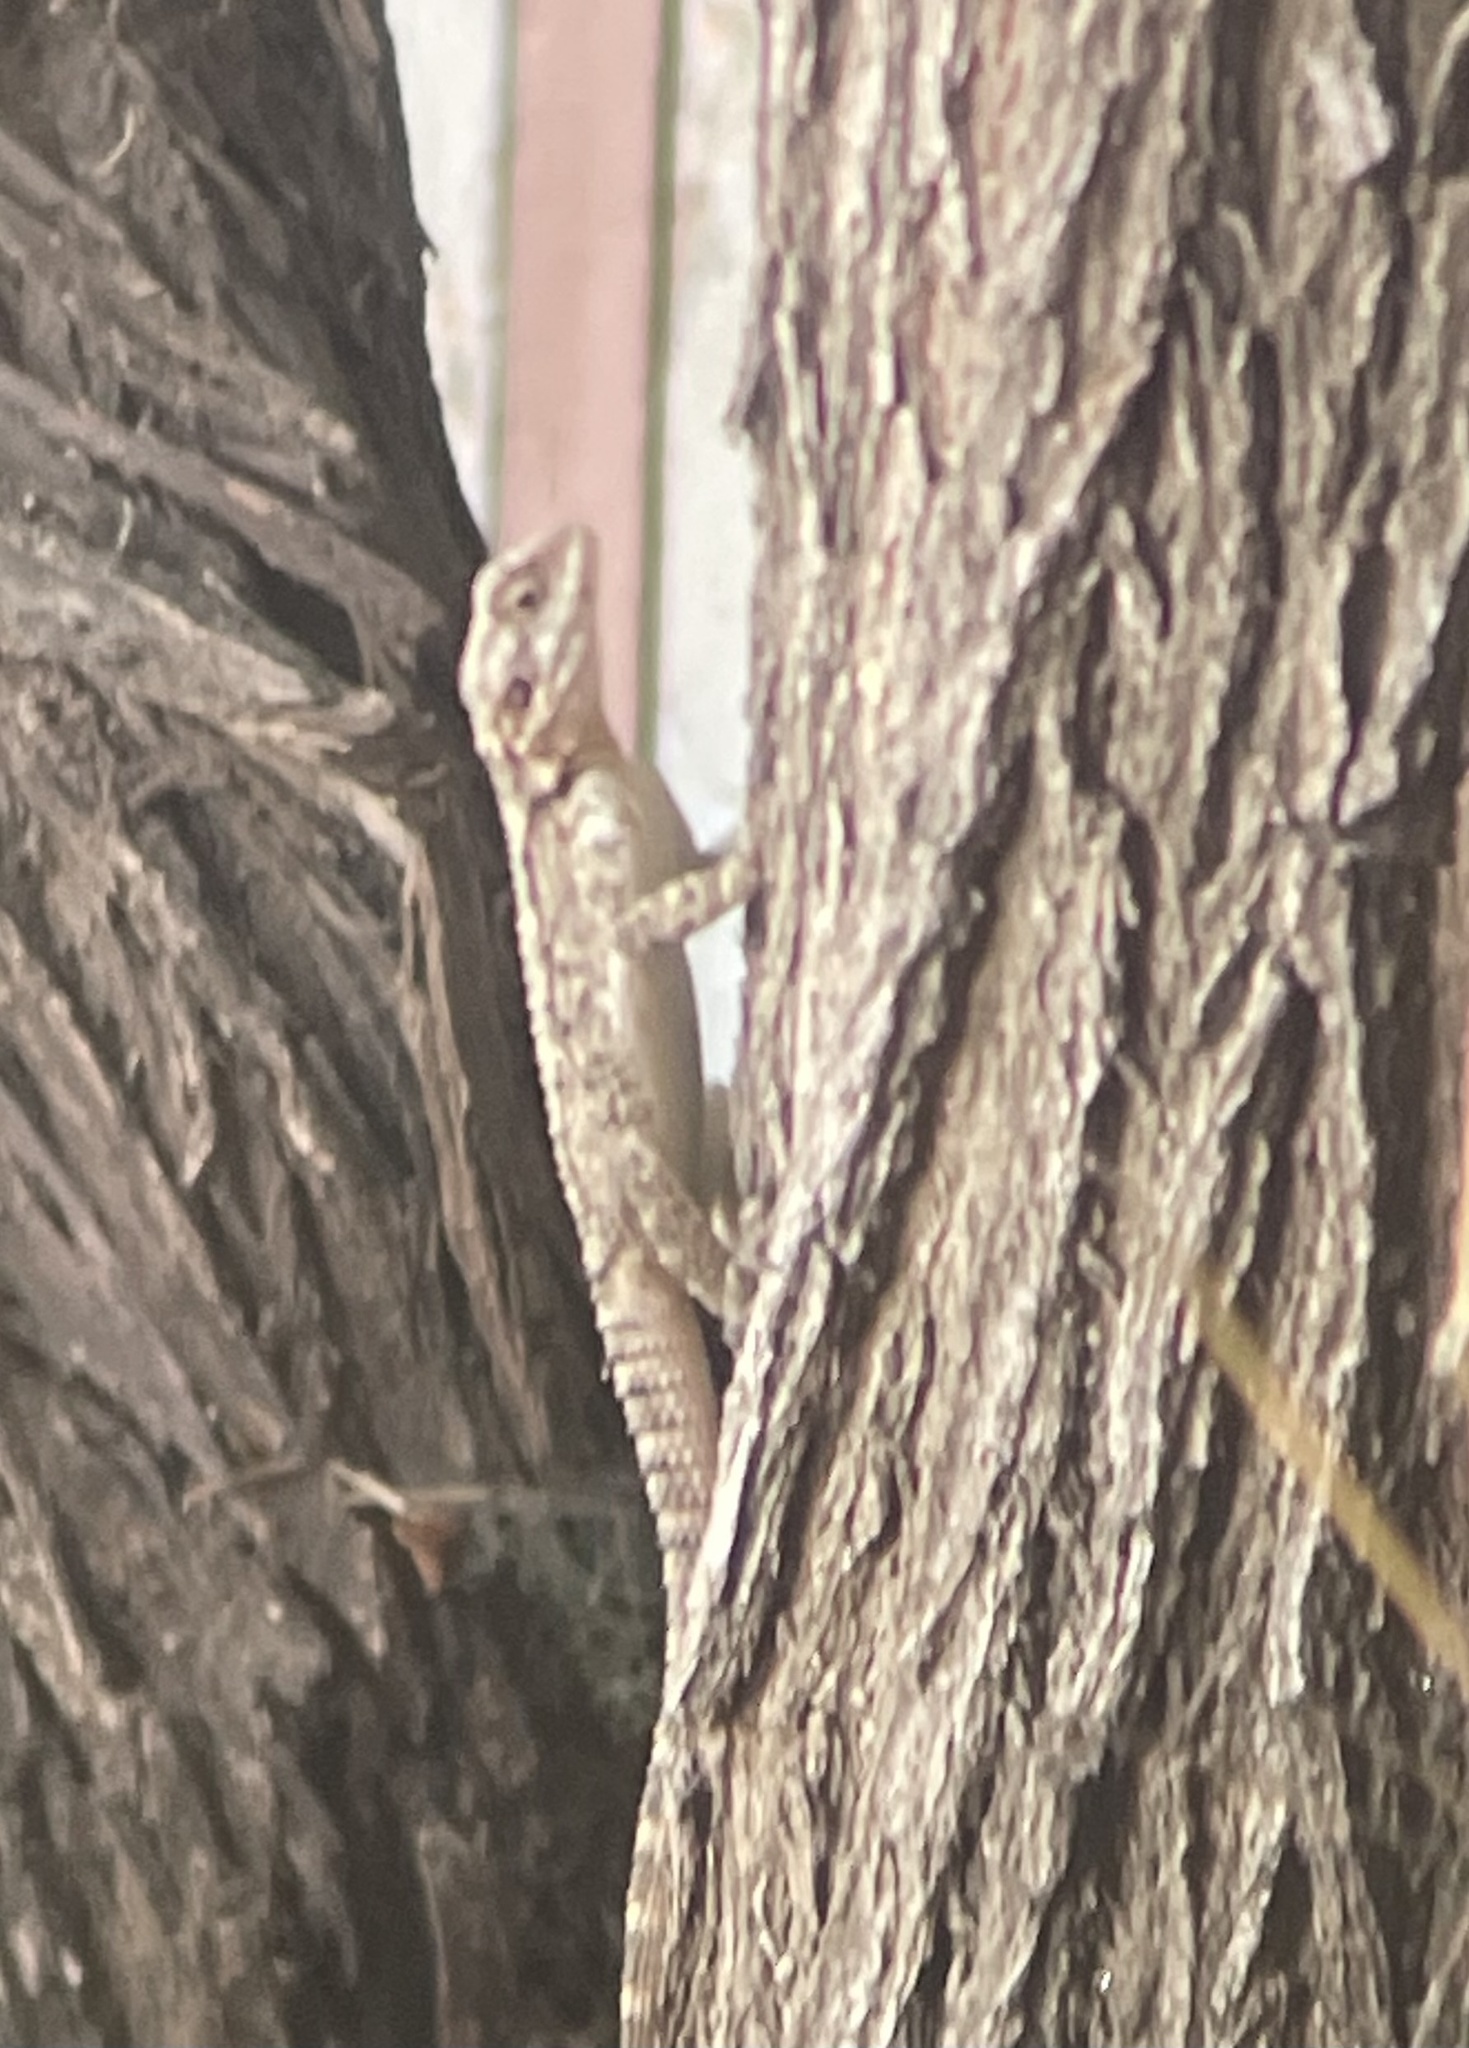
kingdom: Animalia
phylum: Chordata
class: Squamata
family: Agamidae
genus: Laudakia
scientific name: Laudakia vulgaris
